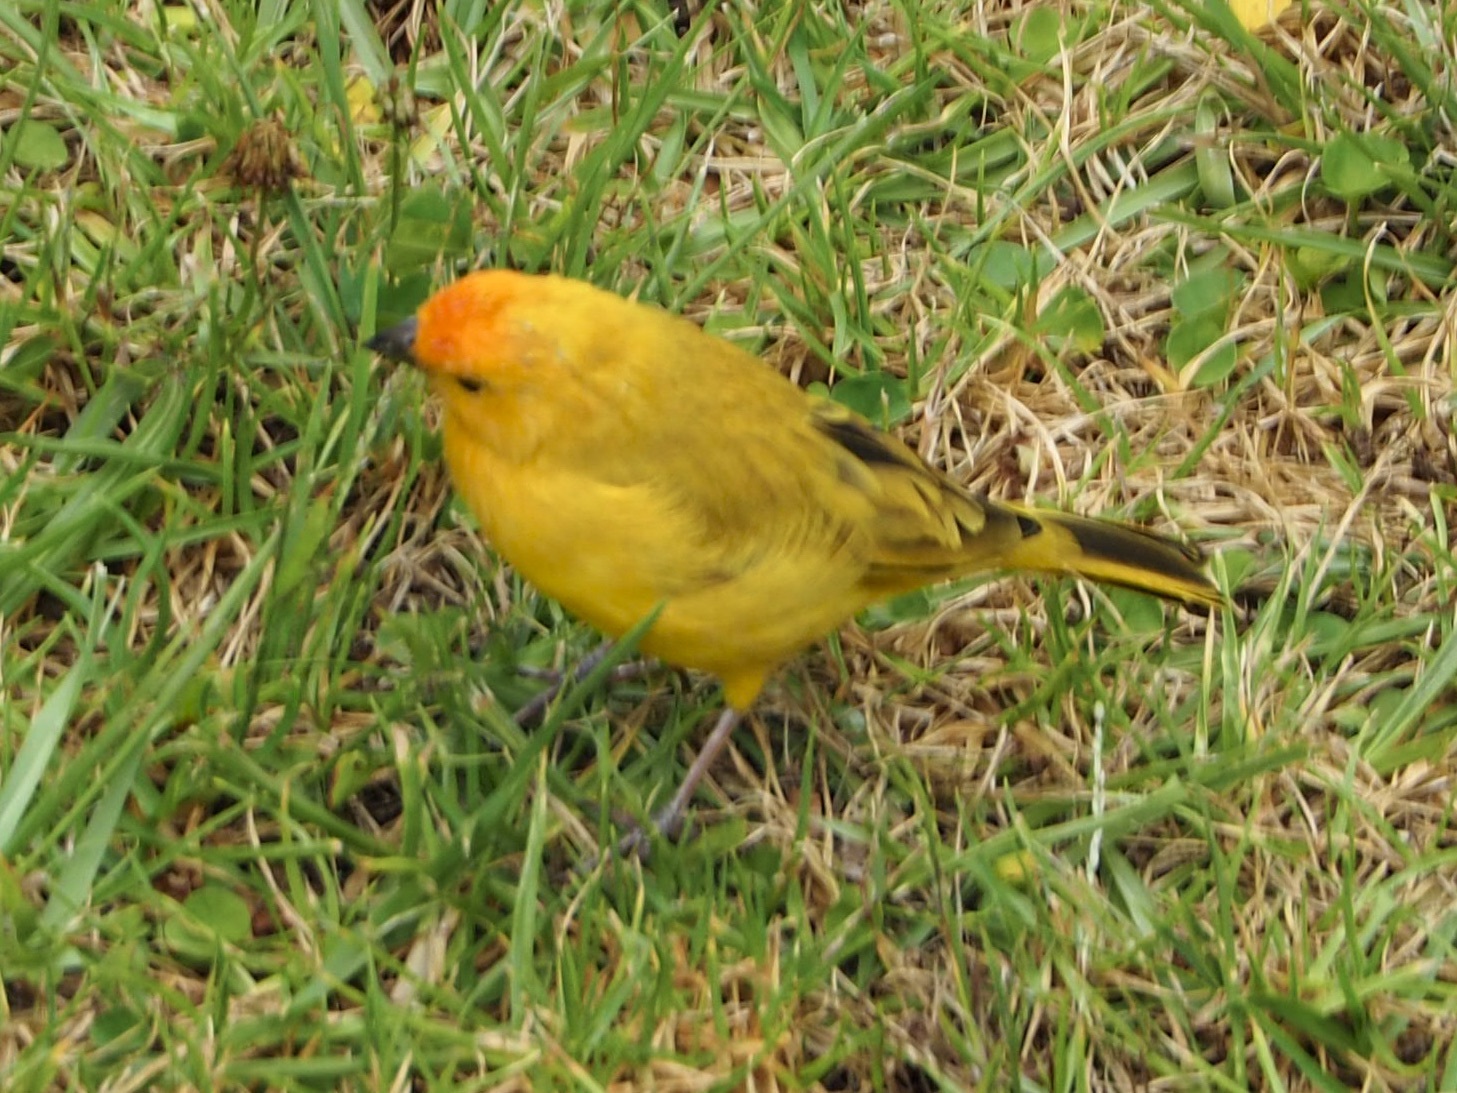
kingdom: Animalia
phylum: Chordata
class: Aves
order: Passeriformes
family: Thraupidae
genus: Sicalis
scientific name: Sicalis flaveola
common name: Saffron finch
